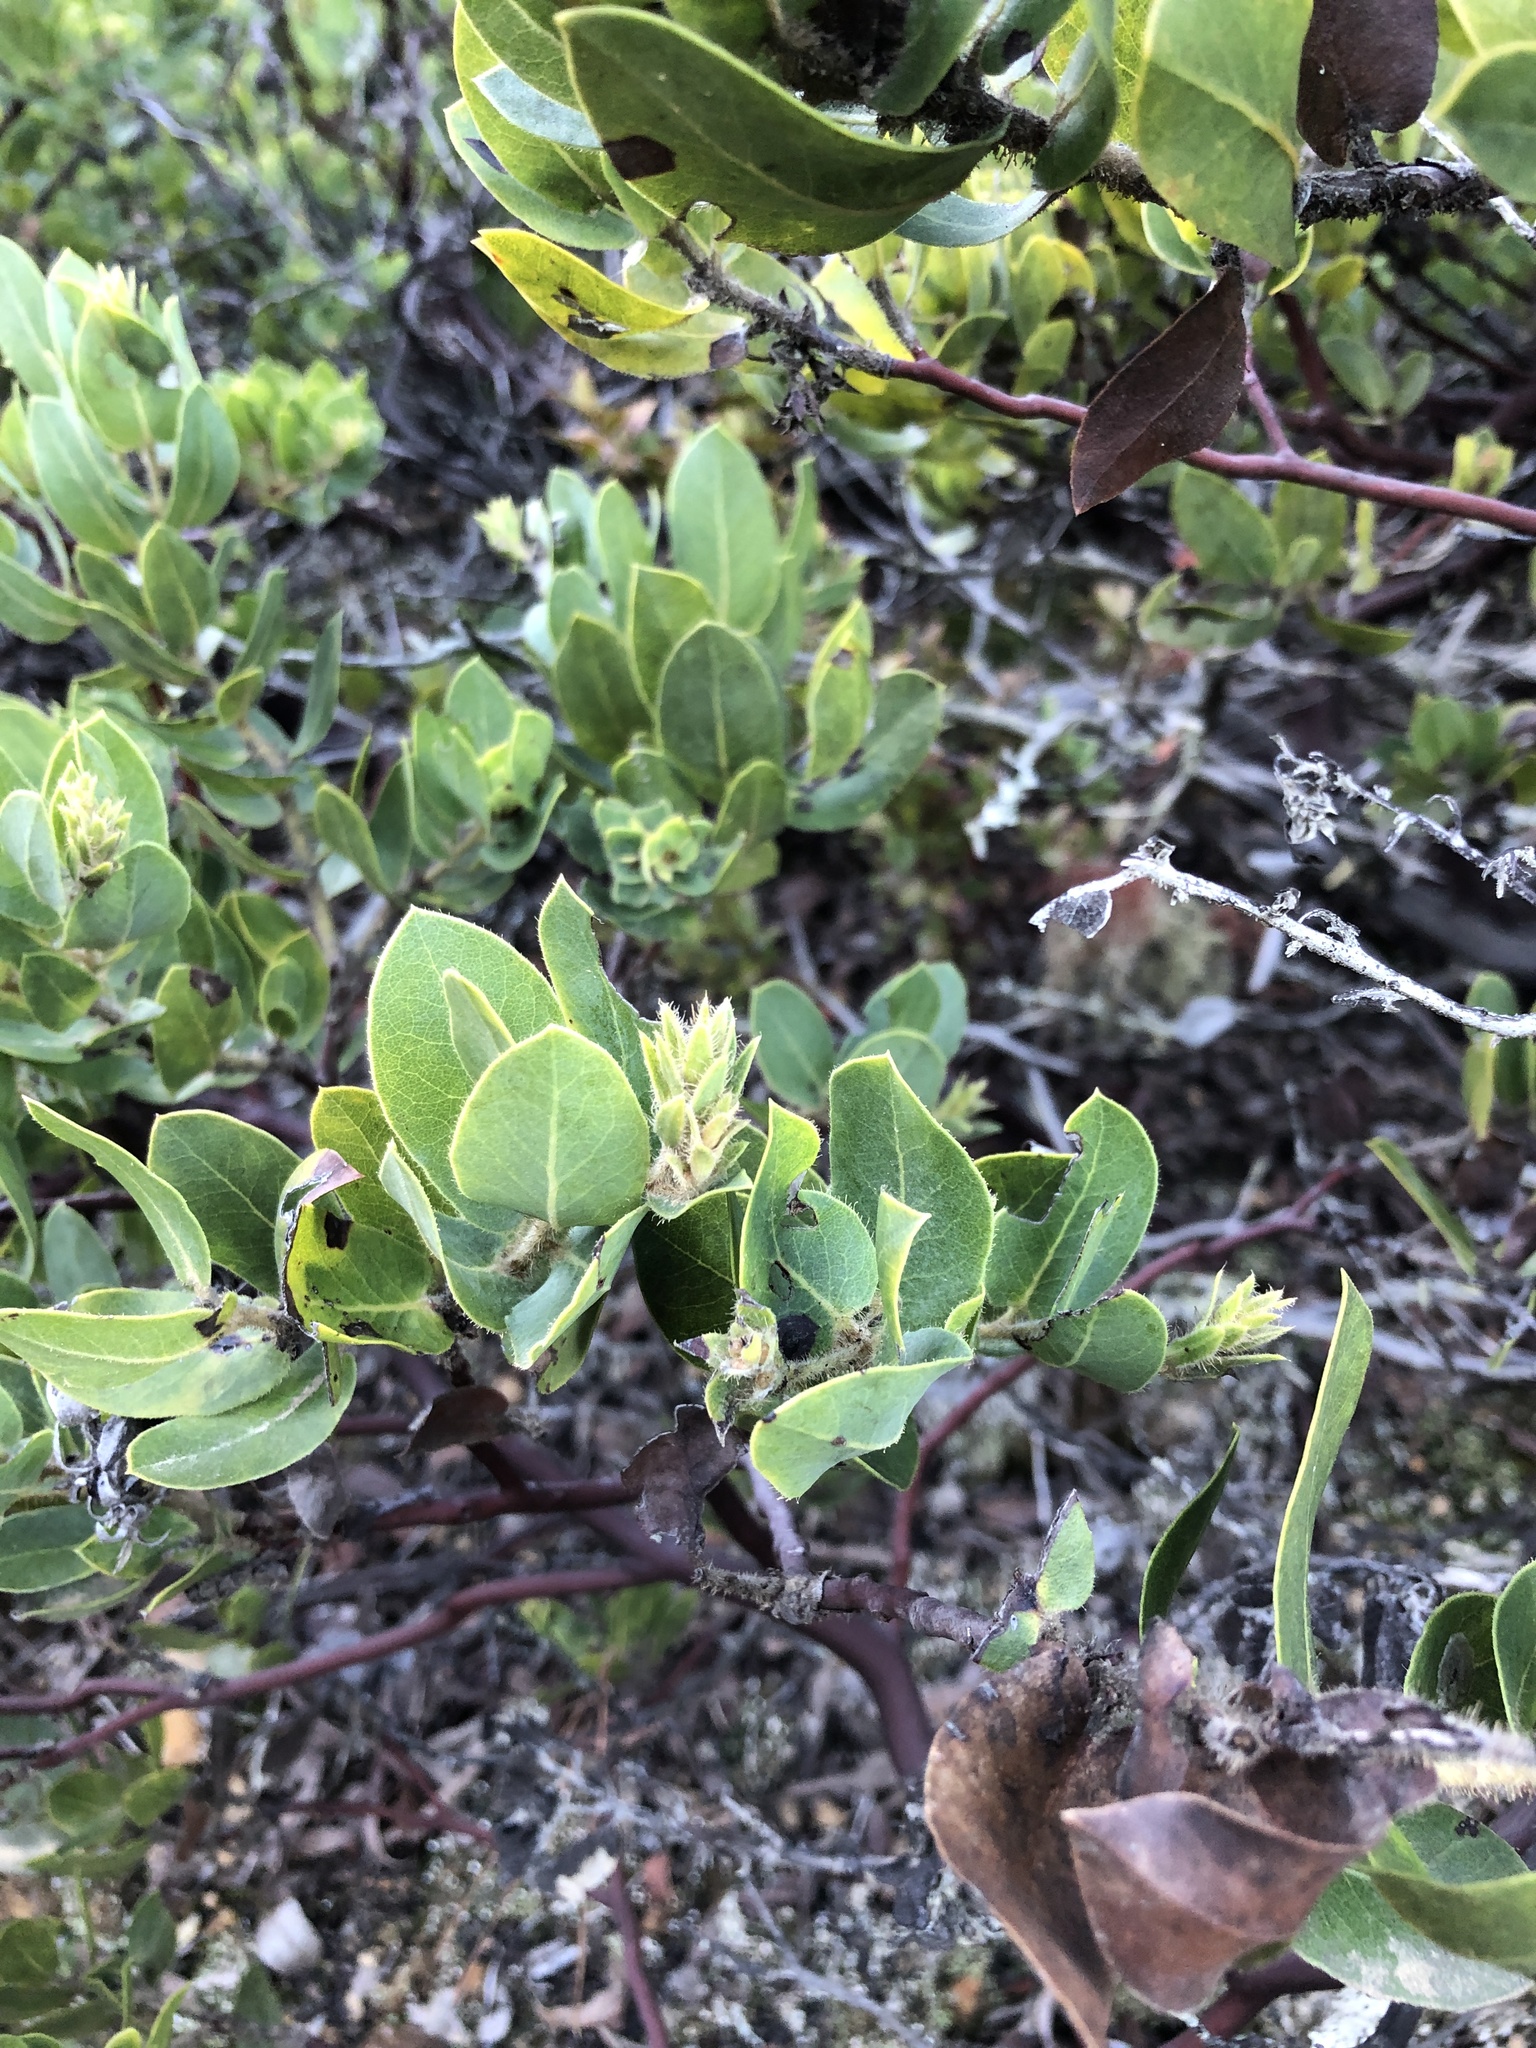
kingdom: Plantae
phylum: Tracheophyta
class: Magnoliopsida
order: Ericales
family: Ericaceae
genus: Arctostaphylos
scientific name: Arctostaphylos montaraensis
